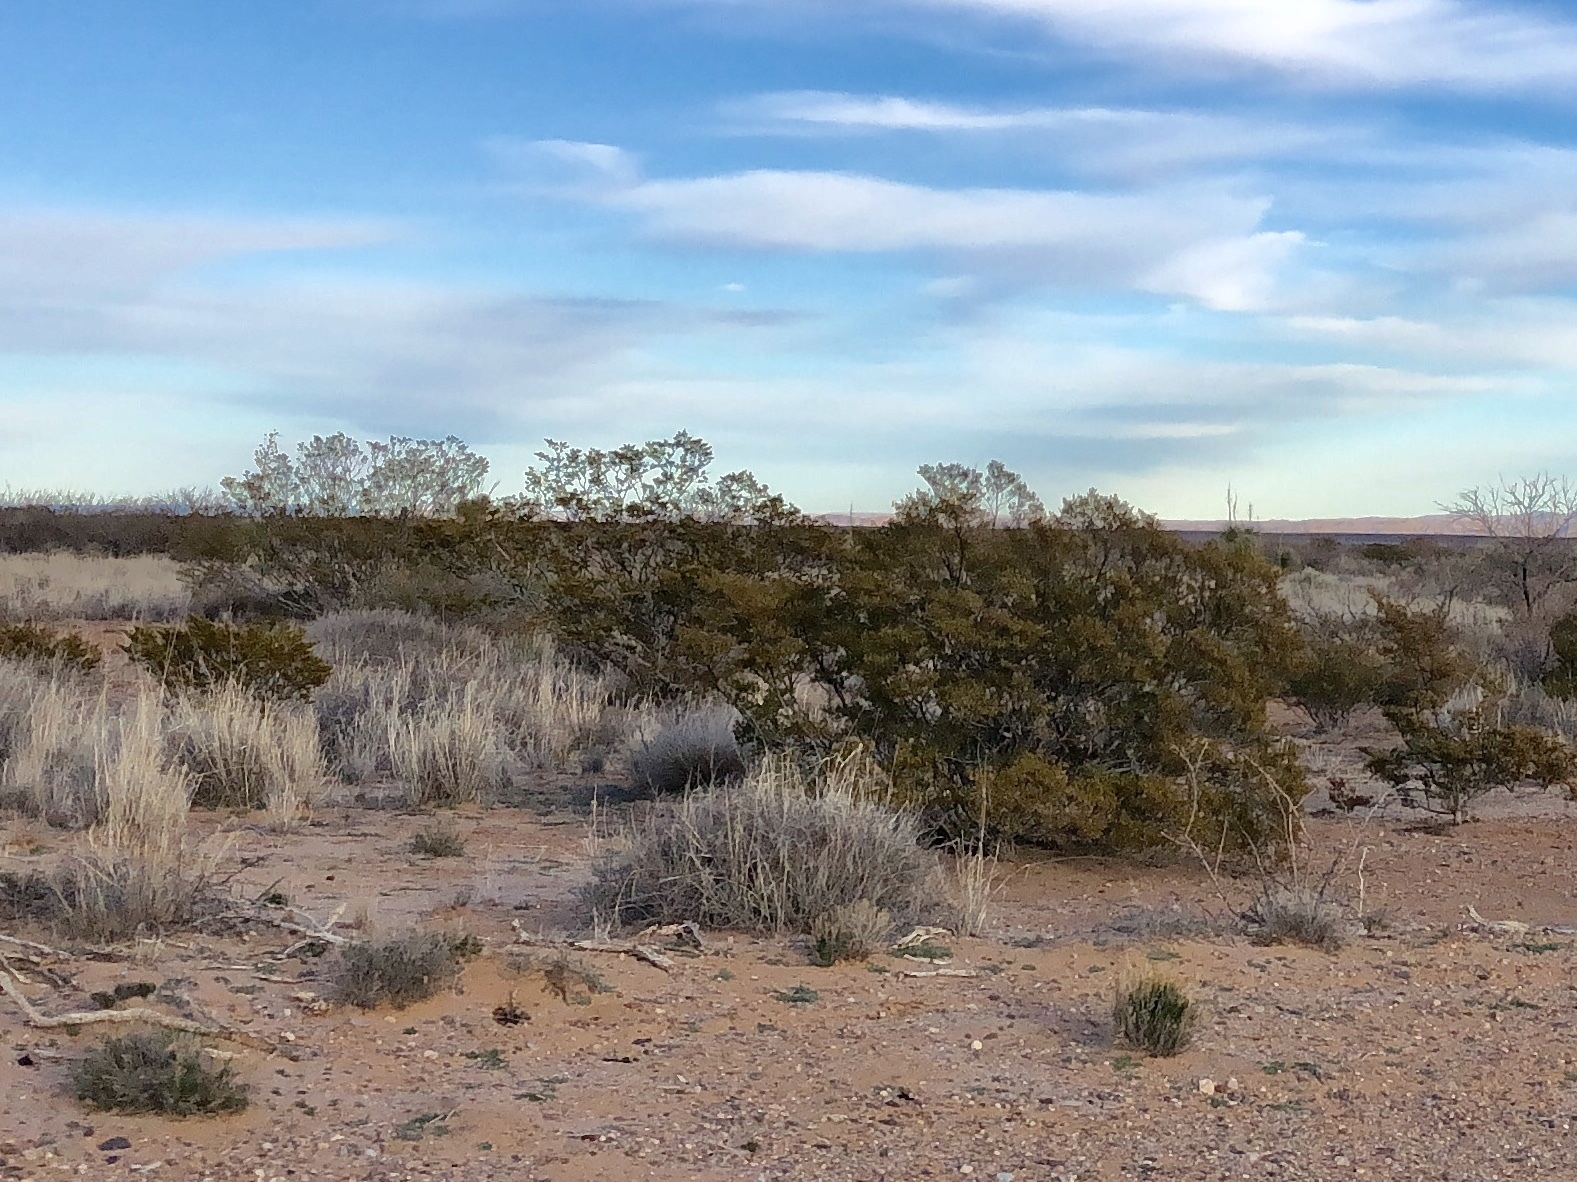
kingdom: Plantae
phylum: Tracheophyta
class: Magnoliopsida
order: Zygophyllales
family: Zygophyllaceae
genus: Larrea
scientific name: Larrea tridentata
